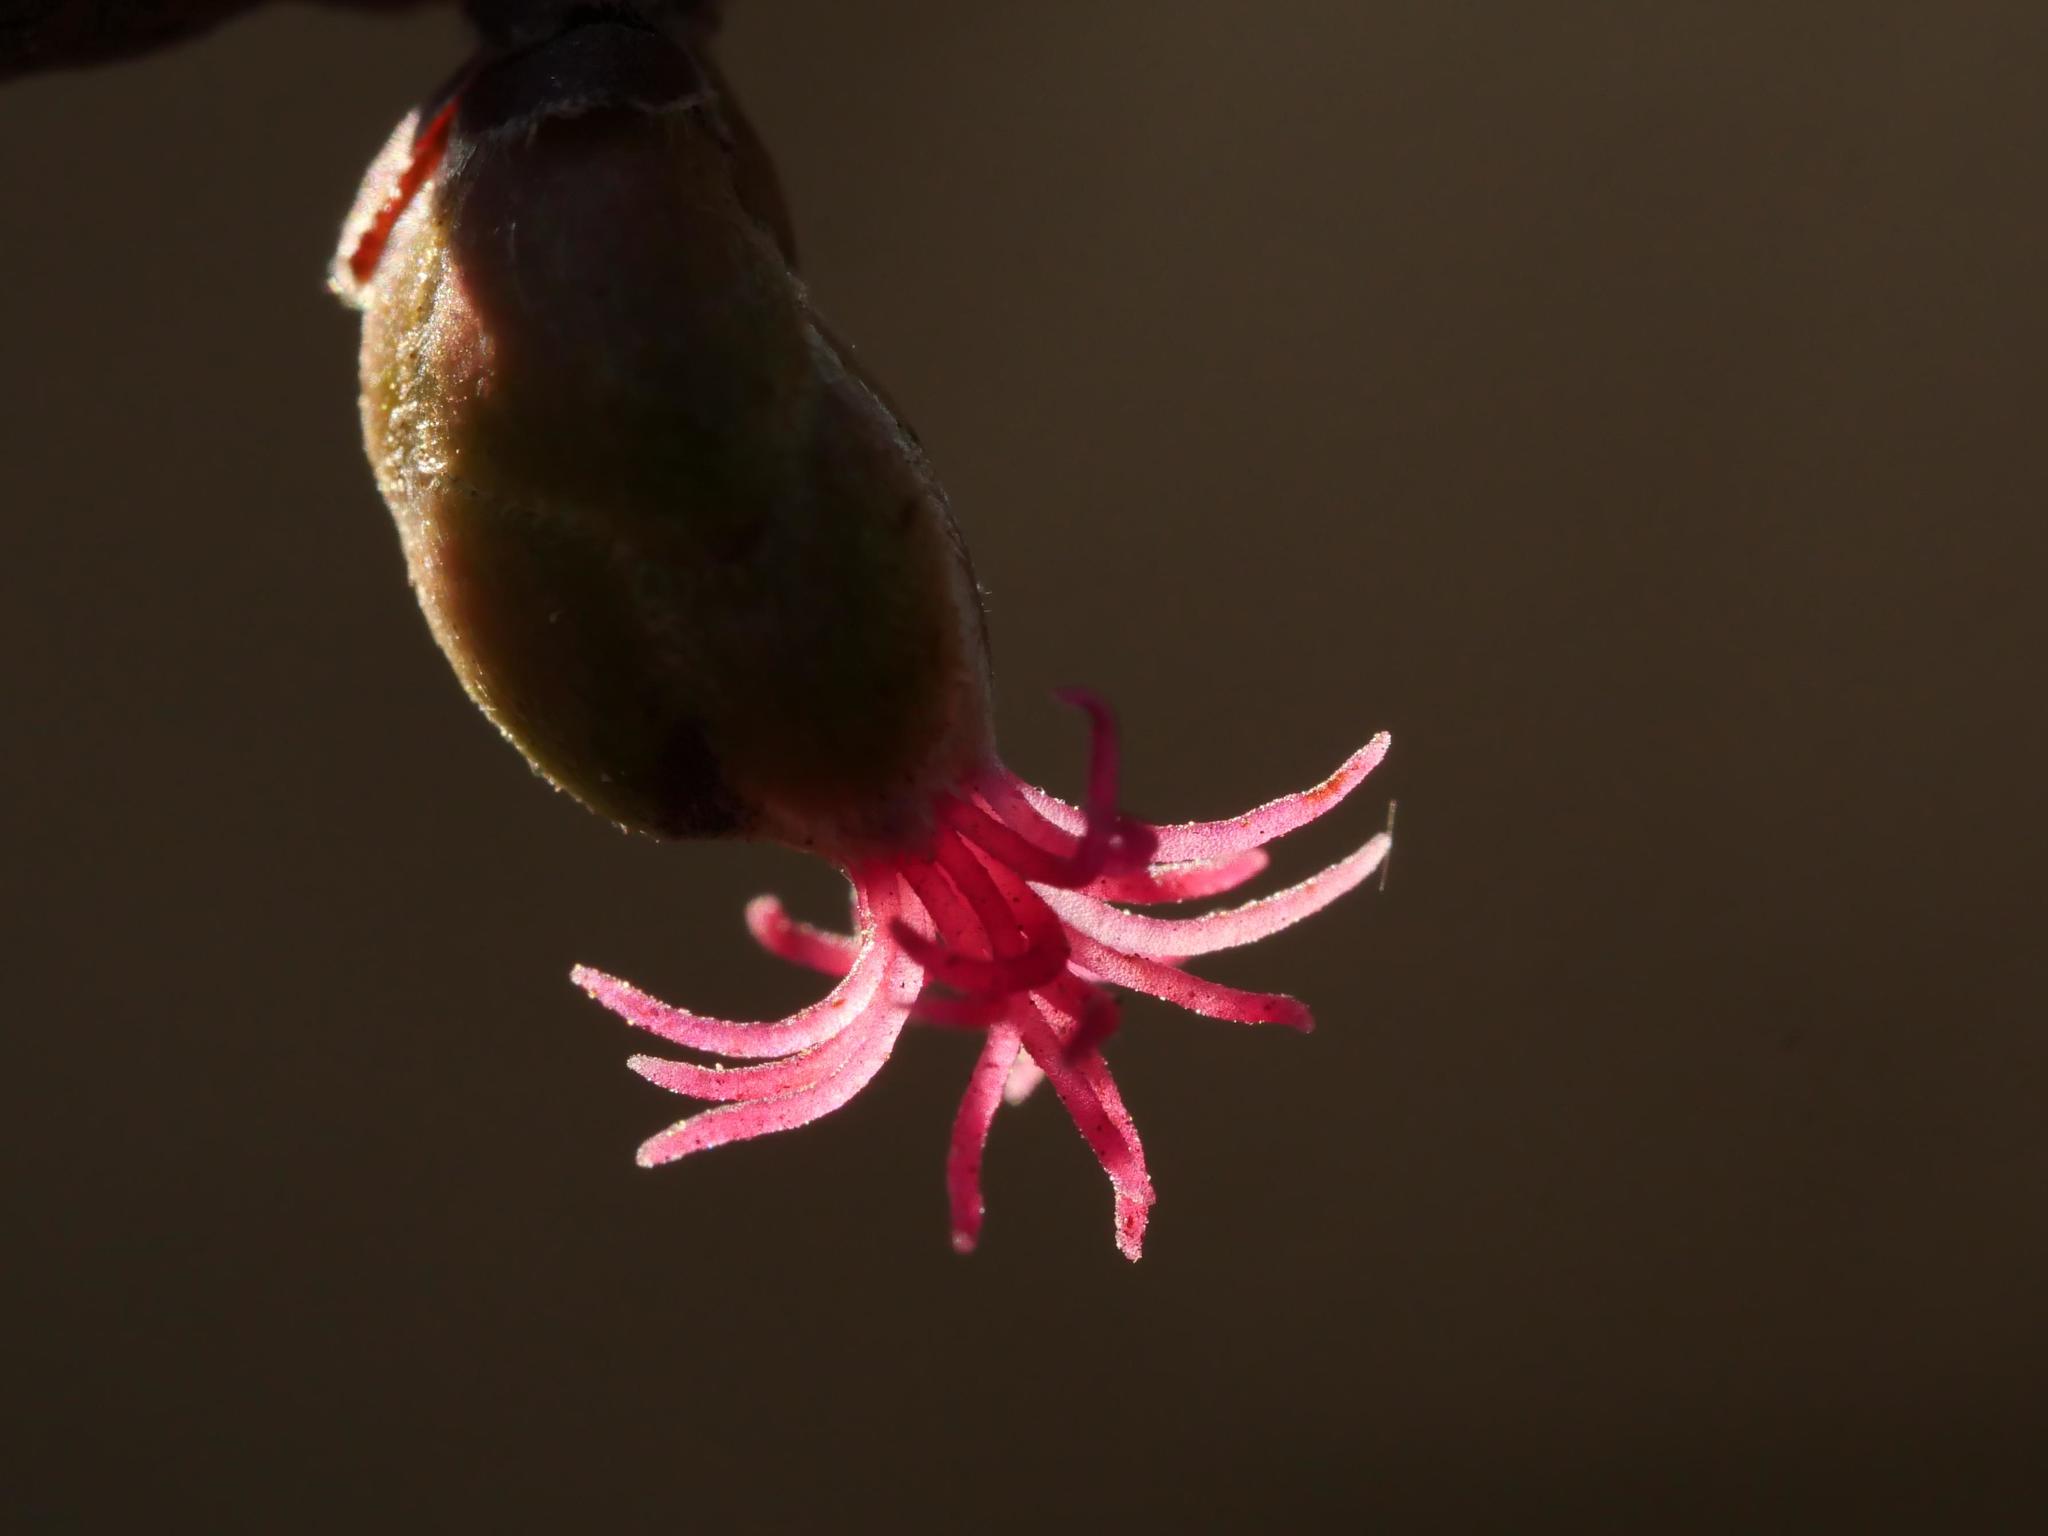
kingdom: Plantae
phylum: Tracheophyta
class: Magnoliopsida
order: Fagales
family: Betulaceae
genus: Corylus
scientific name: Corylus avellana
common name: European hazel
